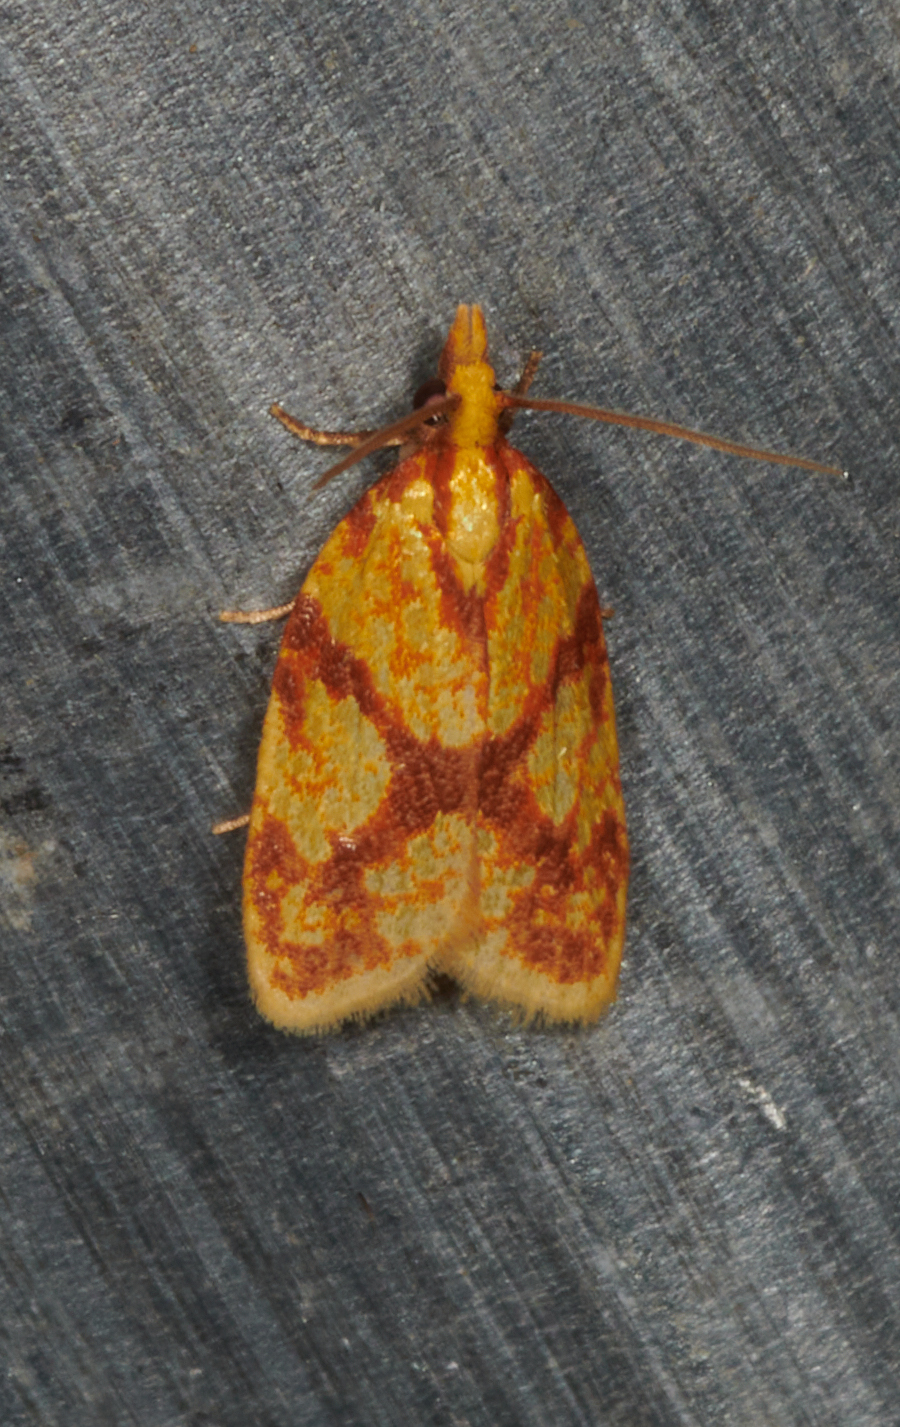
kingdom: Animalia
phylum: Arthropoda
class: Insecta
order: Lepidoptera
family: Tortricidae
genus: Sparganothis
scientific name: Sparganothis sulfureana
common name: Sparganothis fruitworm moth
